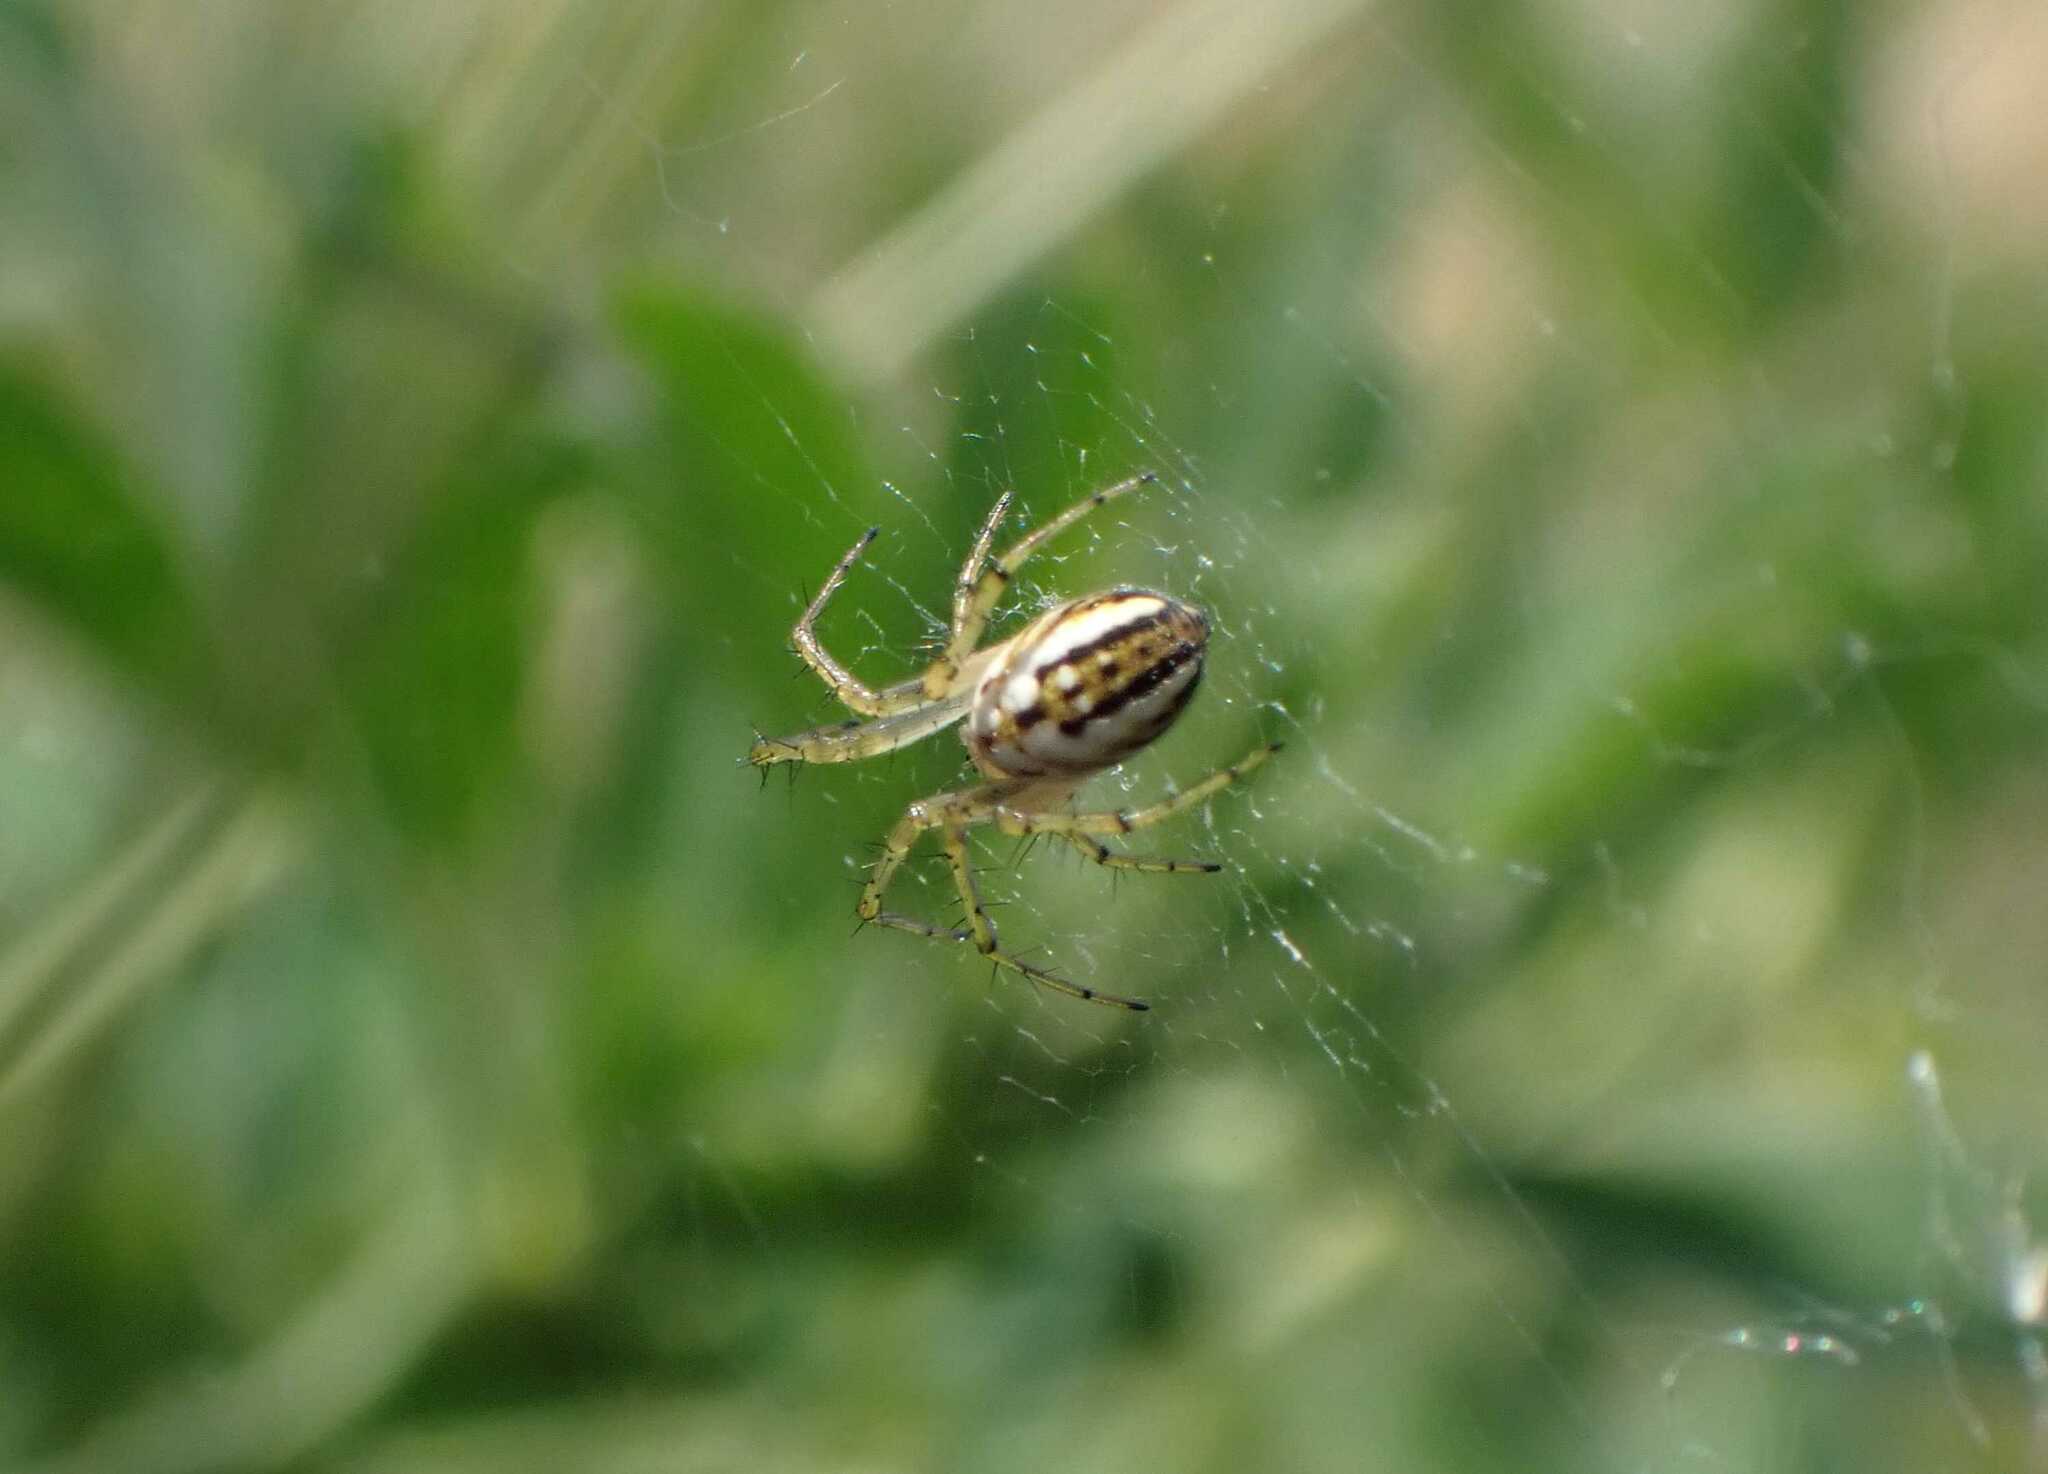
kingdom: Animalia
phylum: Arthropoda
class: Arachnida
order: Araneae
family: Araneidae
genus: Mangora
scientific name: Mangora acalypha
